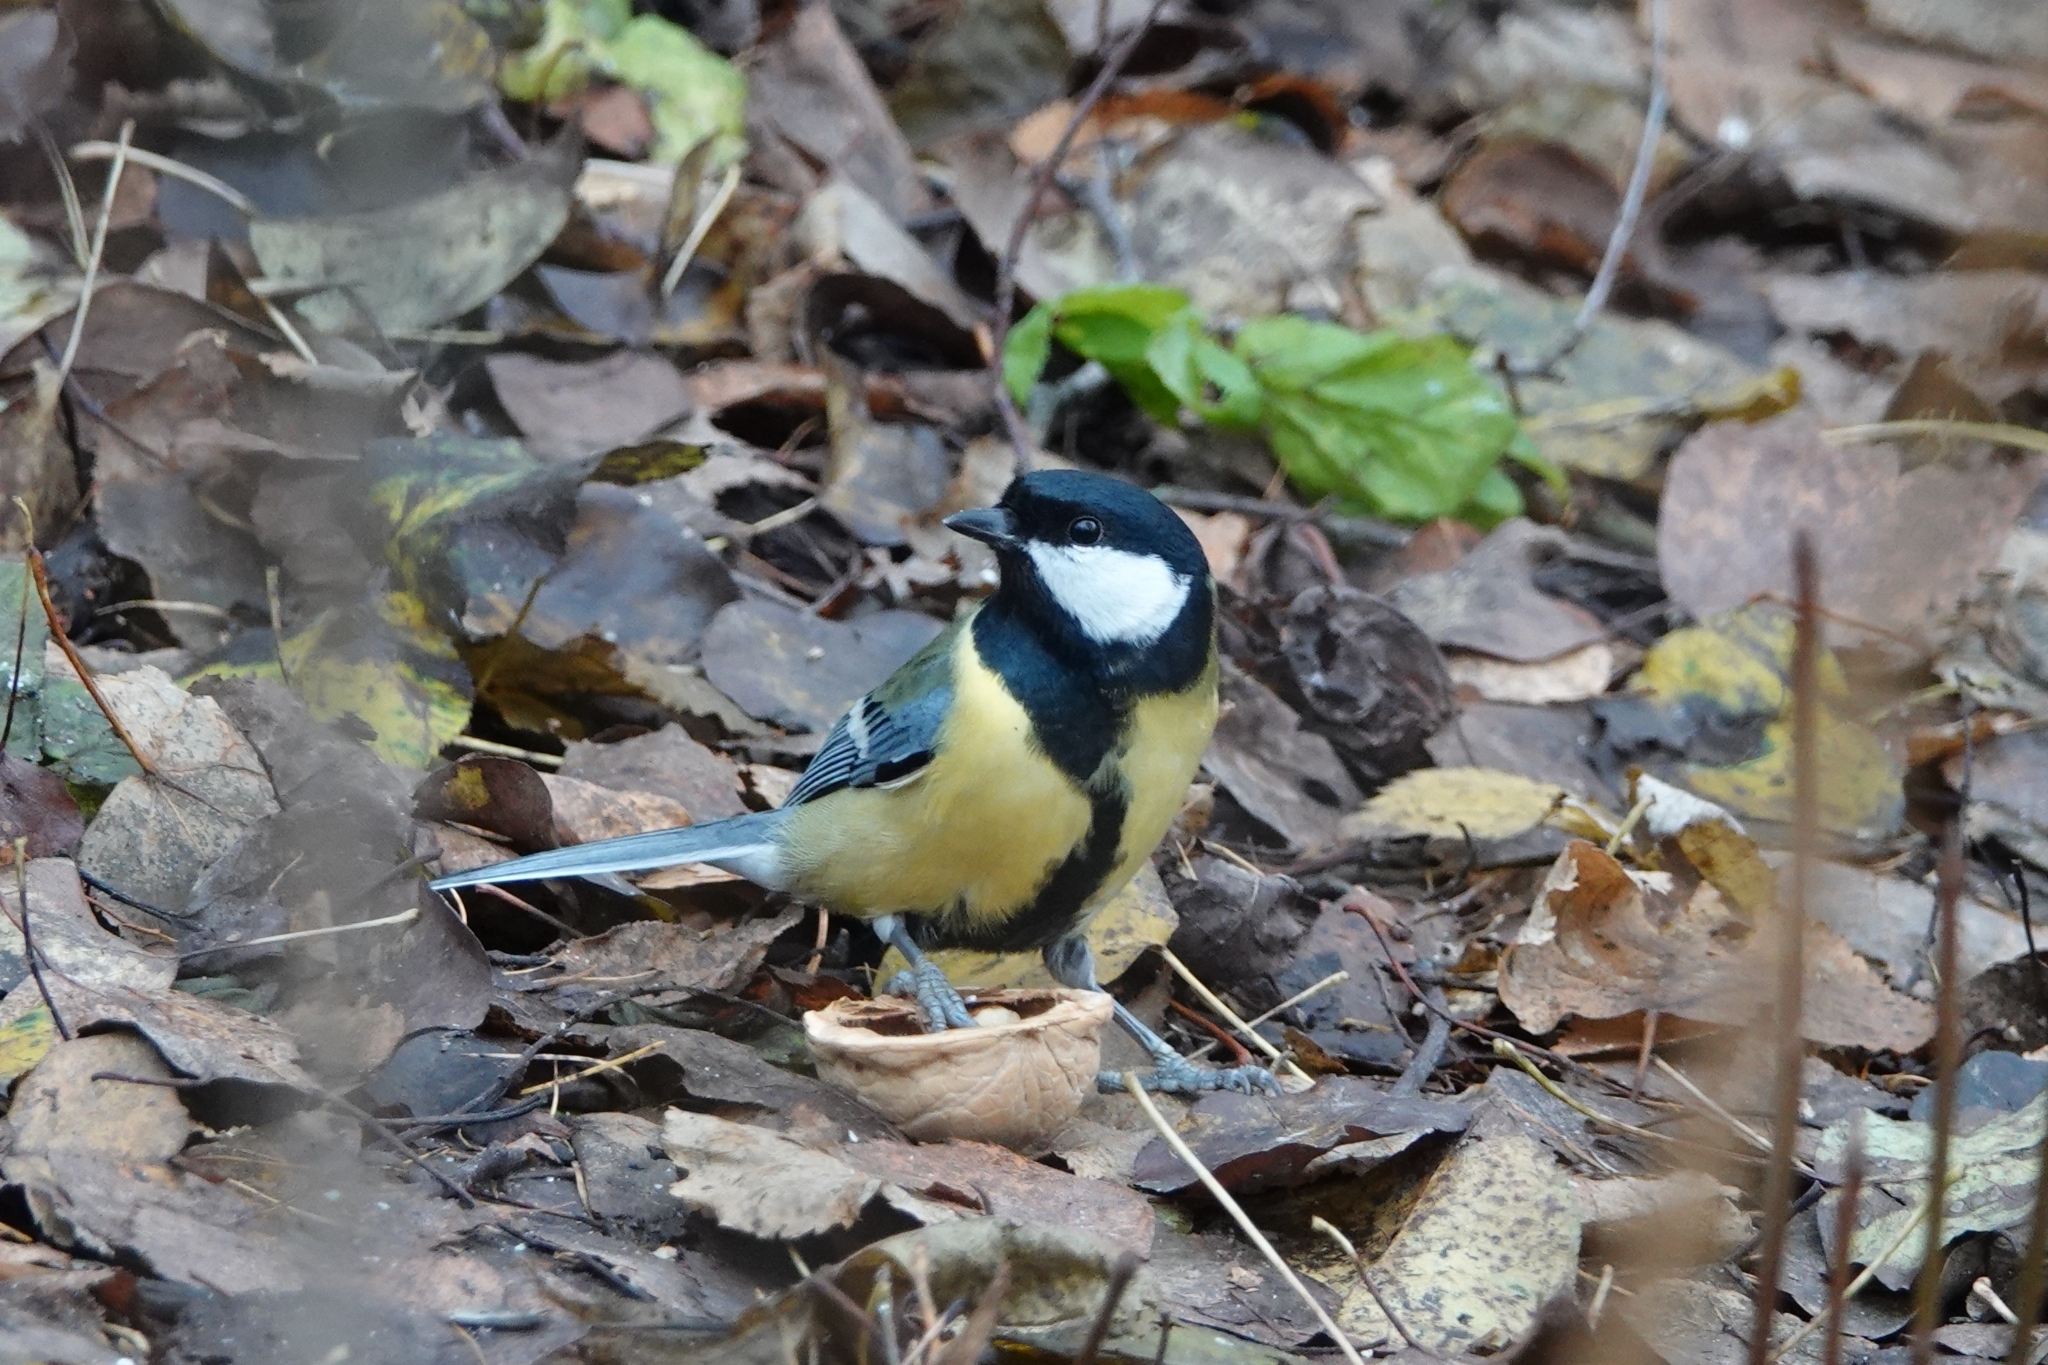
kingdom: Animalia
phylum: Chordata
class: Aves
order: Passeriformes
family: Paridae
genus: Parus
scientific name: Parus major
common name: Great tit
